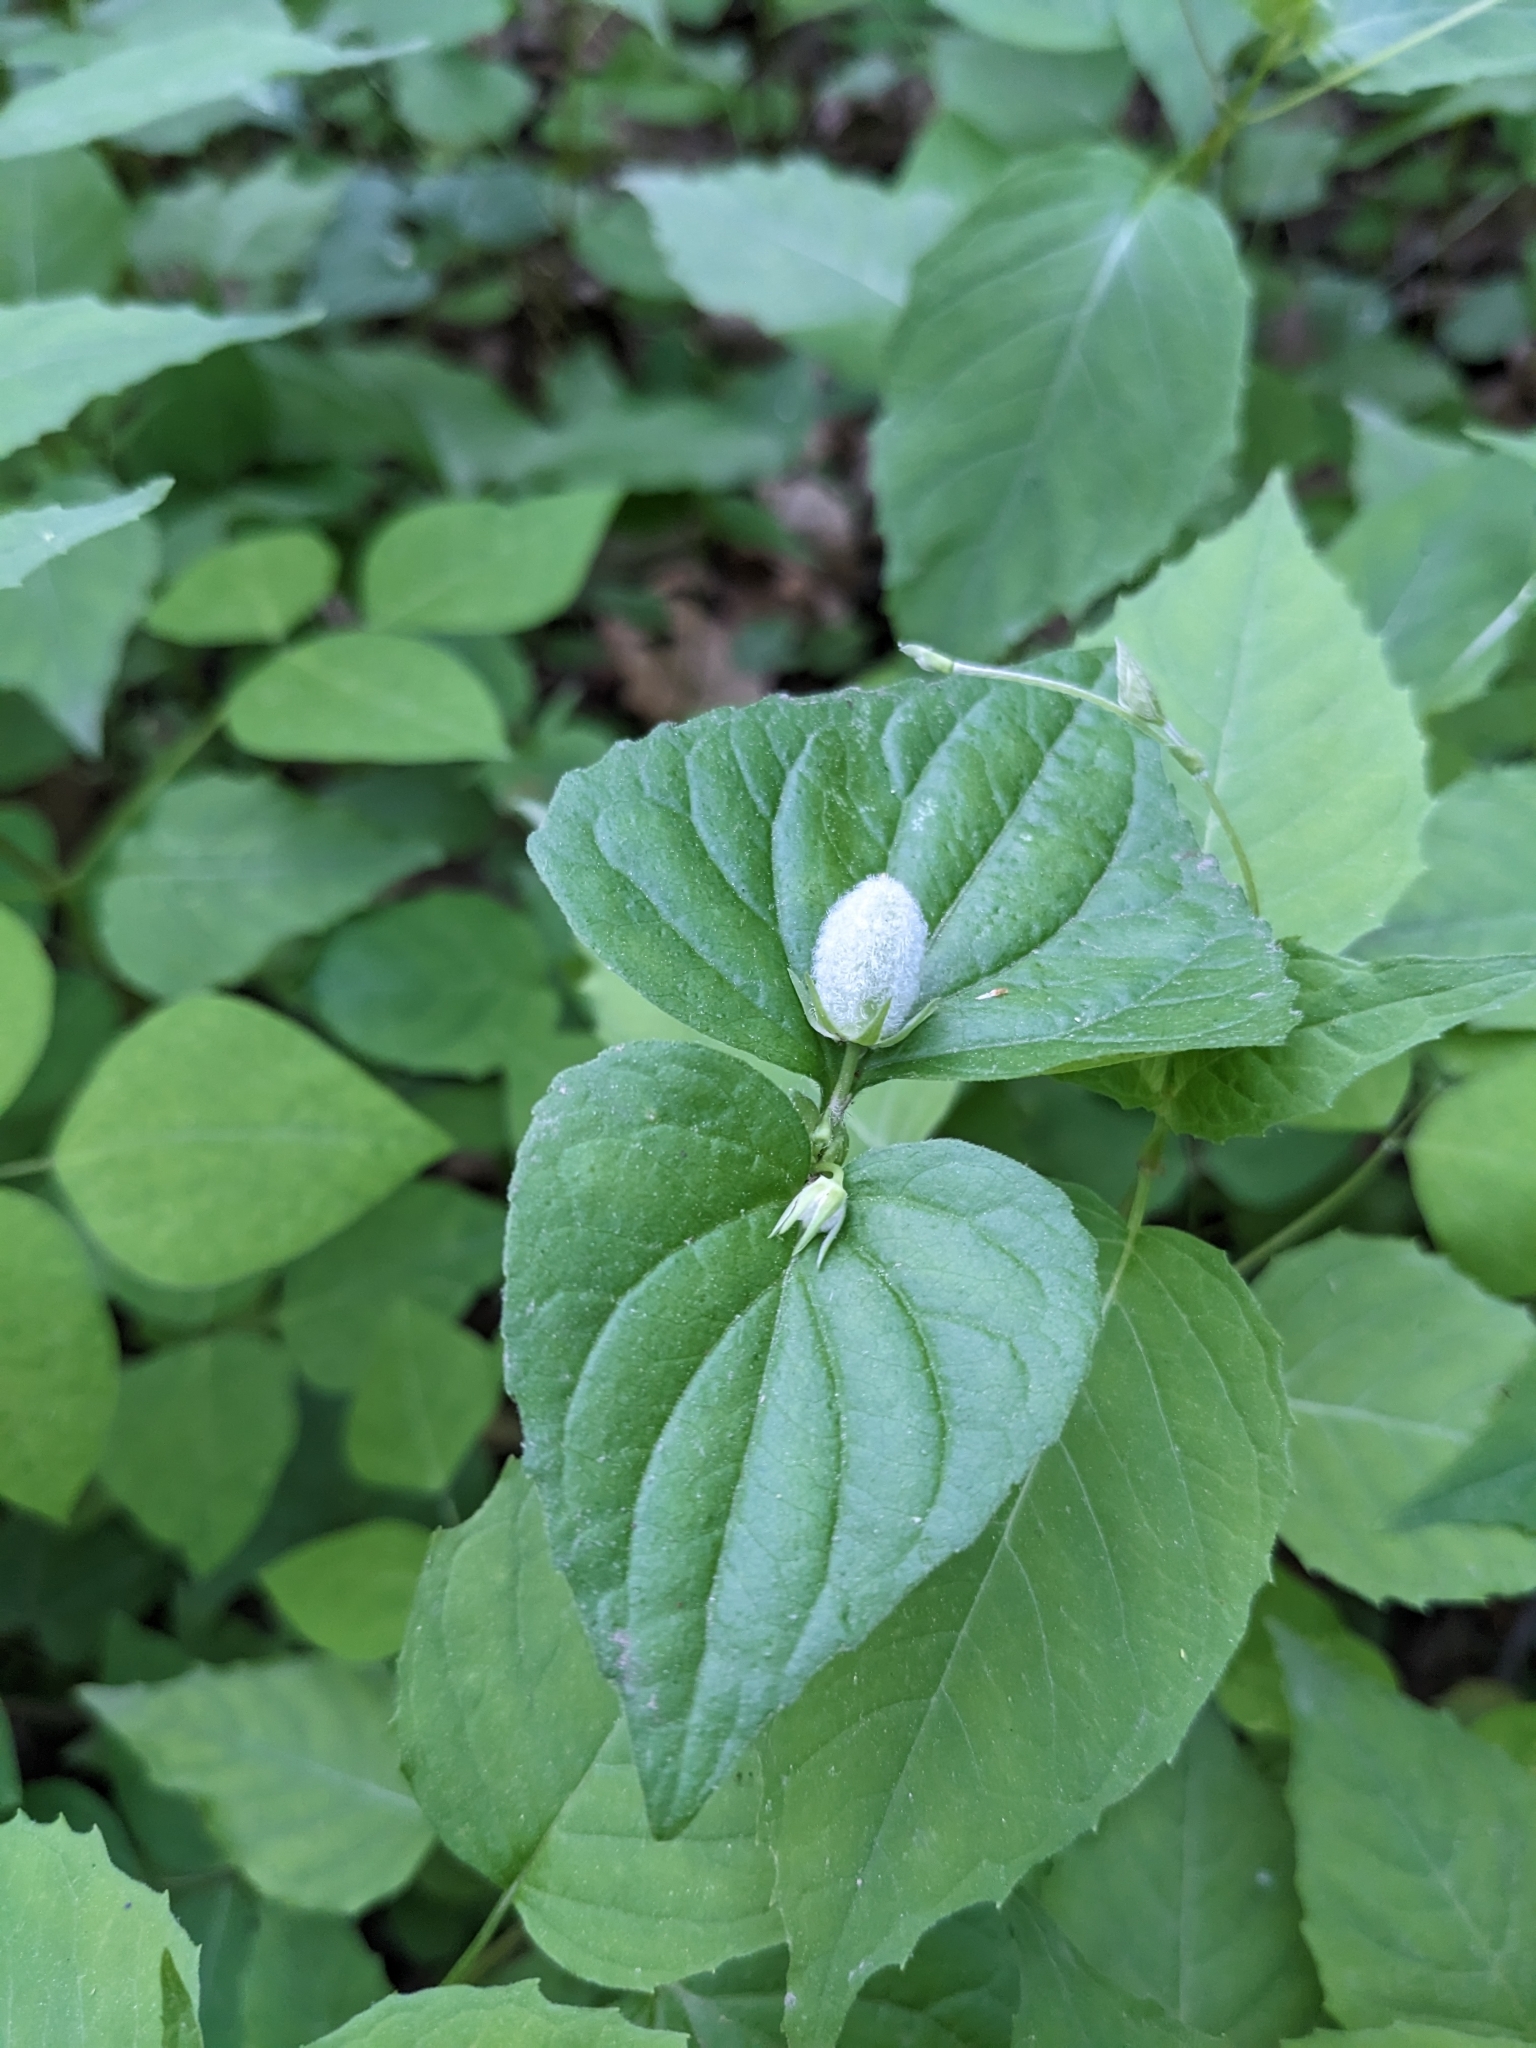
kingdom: Plantae
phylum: Tracheophyta
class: Magnoliopsida
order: Malpighiales
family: Violaceae
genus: Viola
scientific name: Viola eriocarpa
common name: Smooth yellow violet
